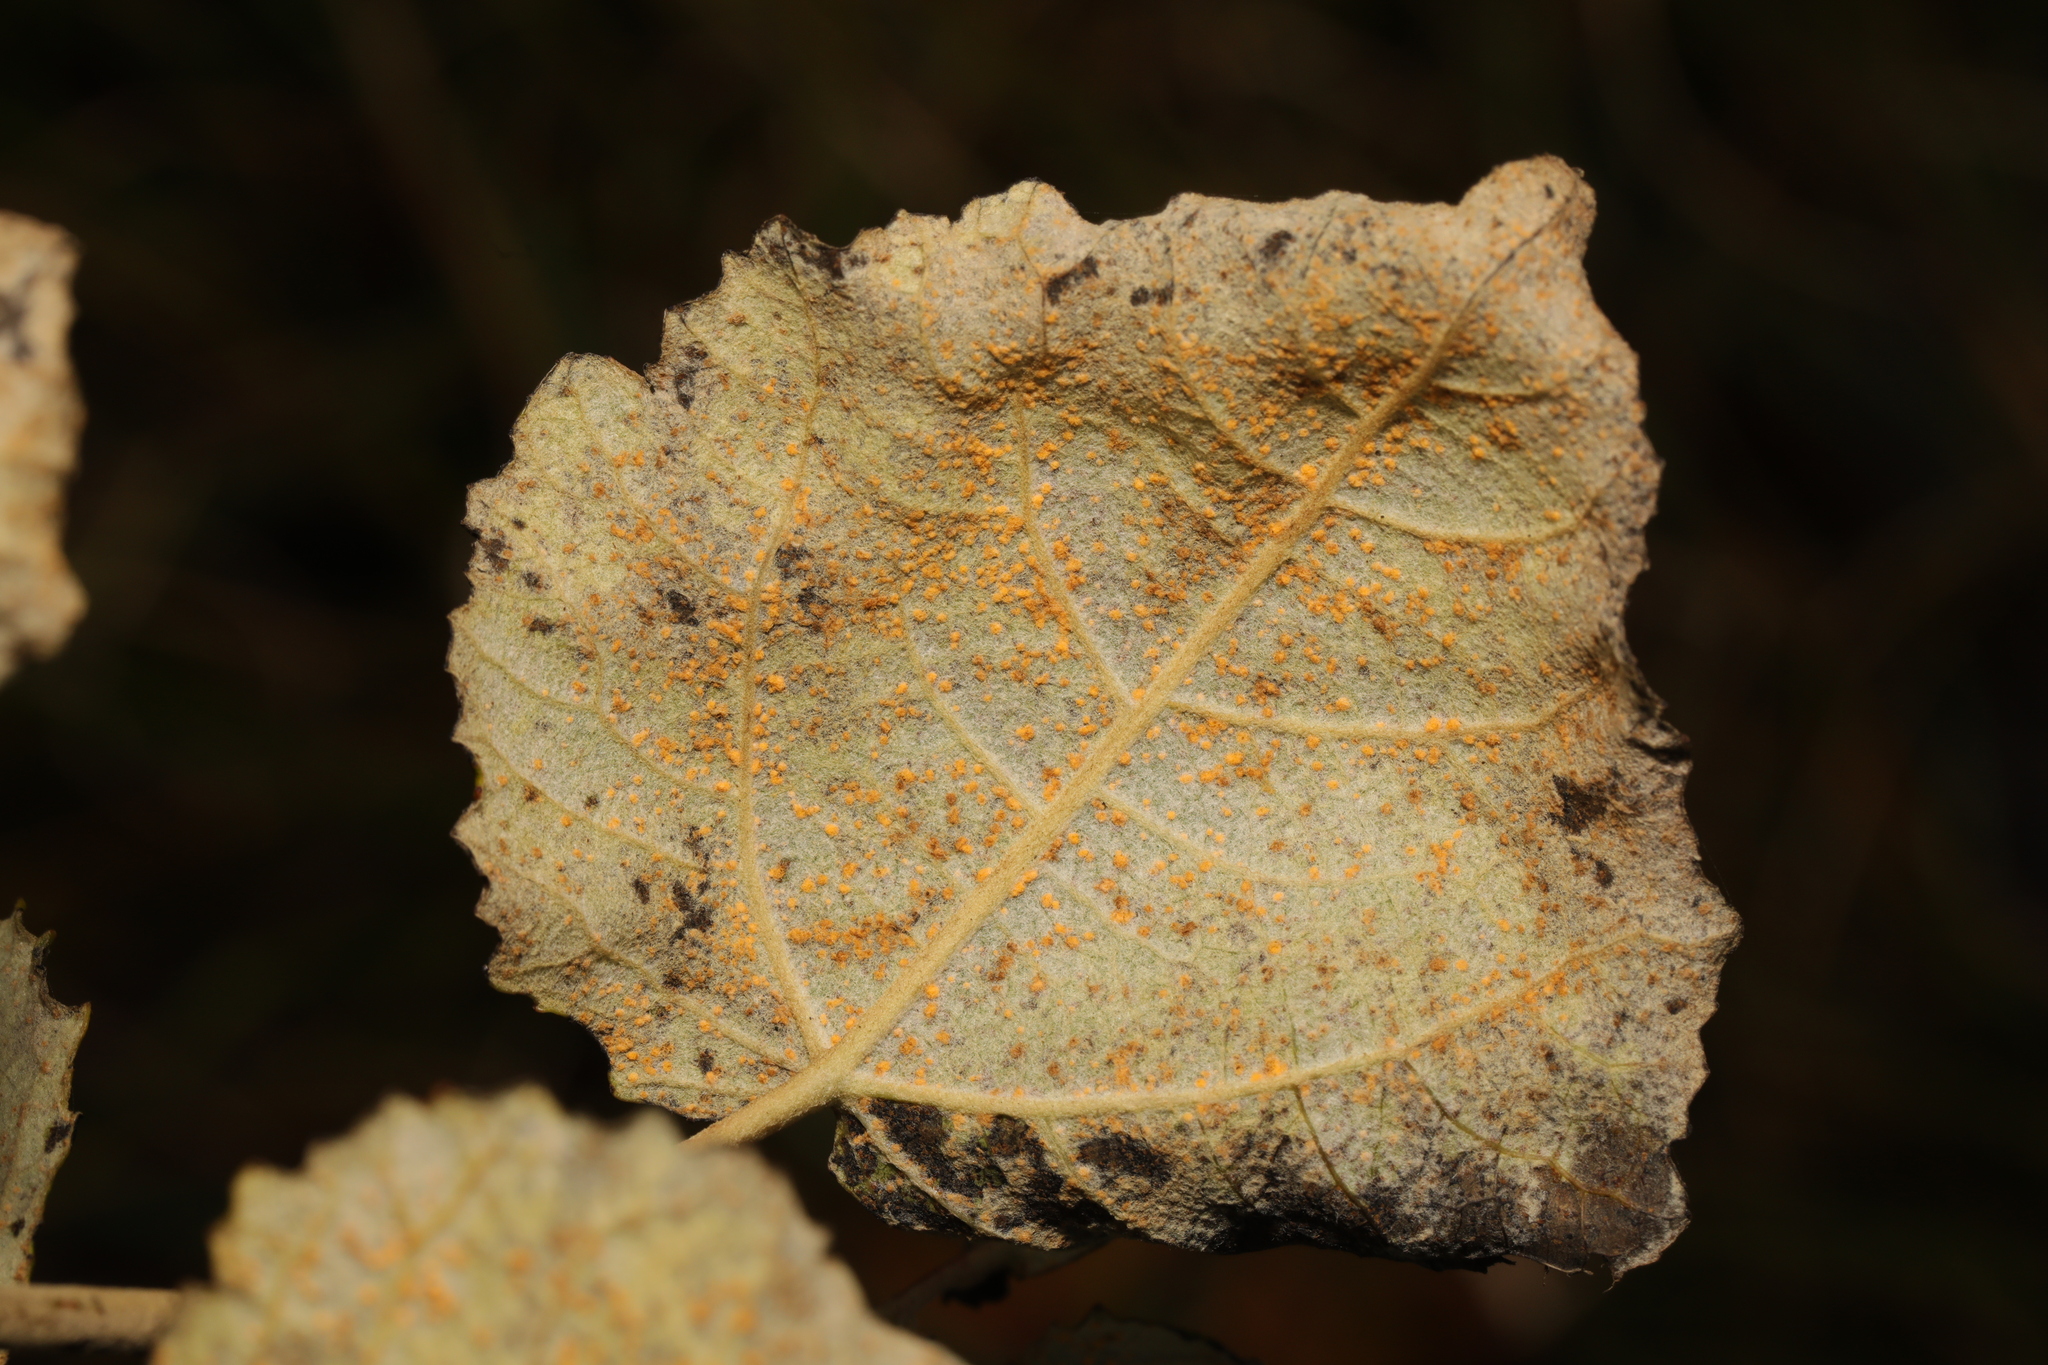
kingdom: Fungi
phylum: Basidiomycota
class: Pucciniomycetes
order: Pucciniales
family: Melampsoraceae
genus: Melampsora
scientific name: Melampsora
